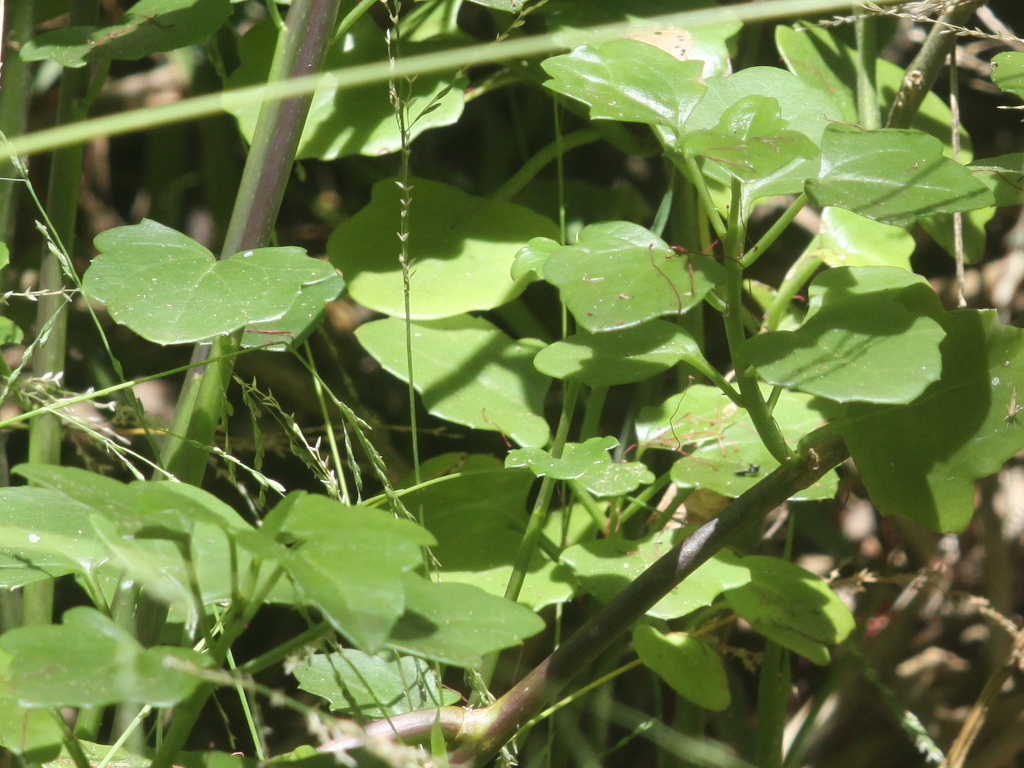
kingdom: Plantae
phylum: Tracheophyta
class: Magnoliopsida
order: Asterales
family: Asteraceae
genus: Senecio
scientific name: Senecio angulatus
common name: Climbing groundsel
